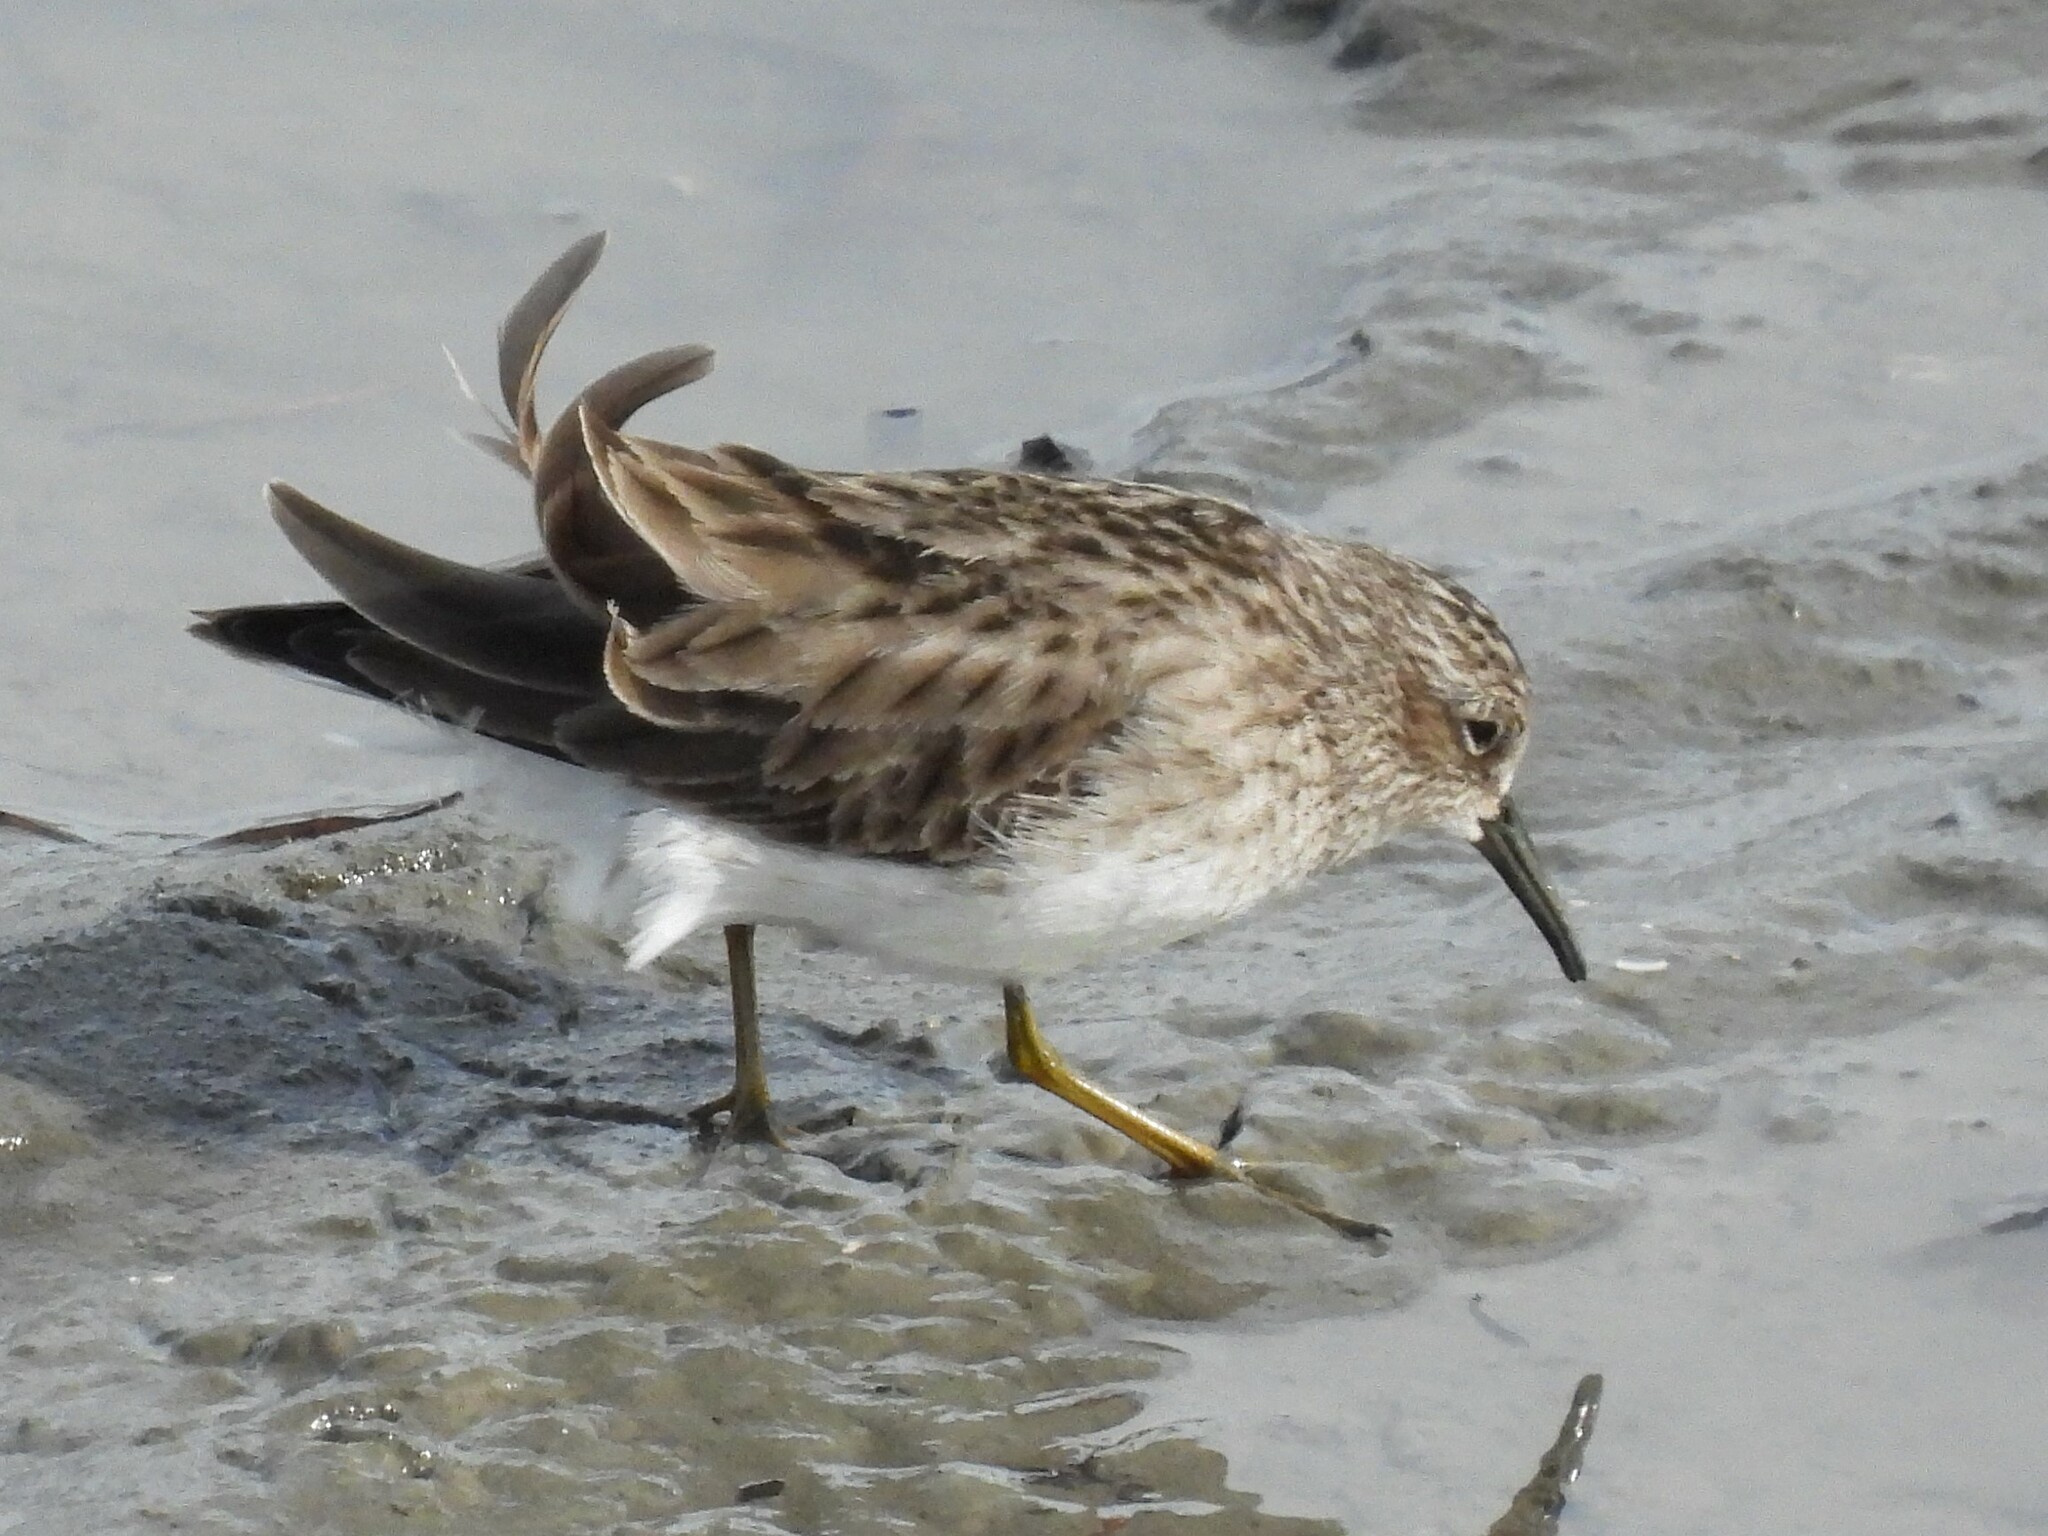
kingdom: Animalia
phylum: Chordata
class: Aves
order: Charadriiformes
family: Scolopacidae
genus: Calidris
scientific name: Calidris minutilla
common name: Least sandpiper
